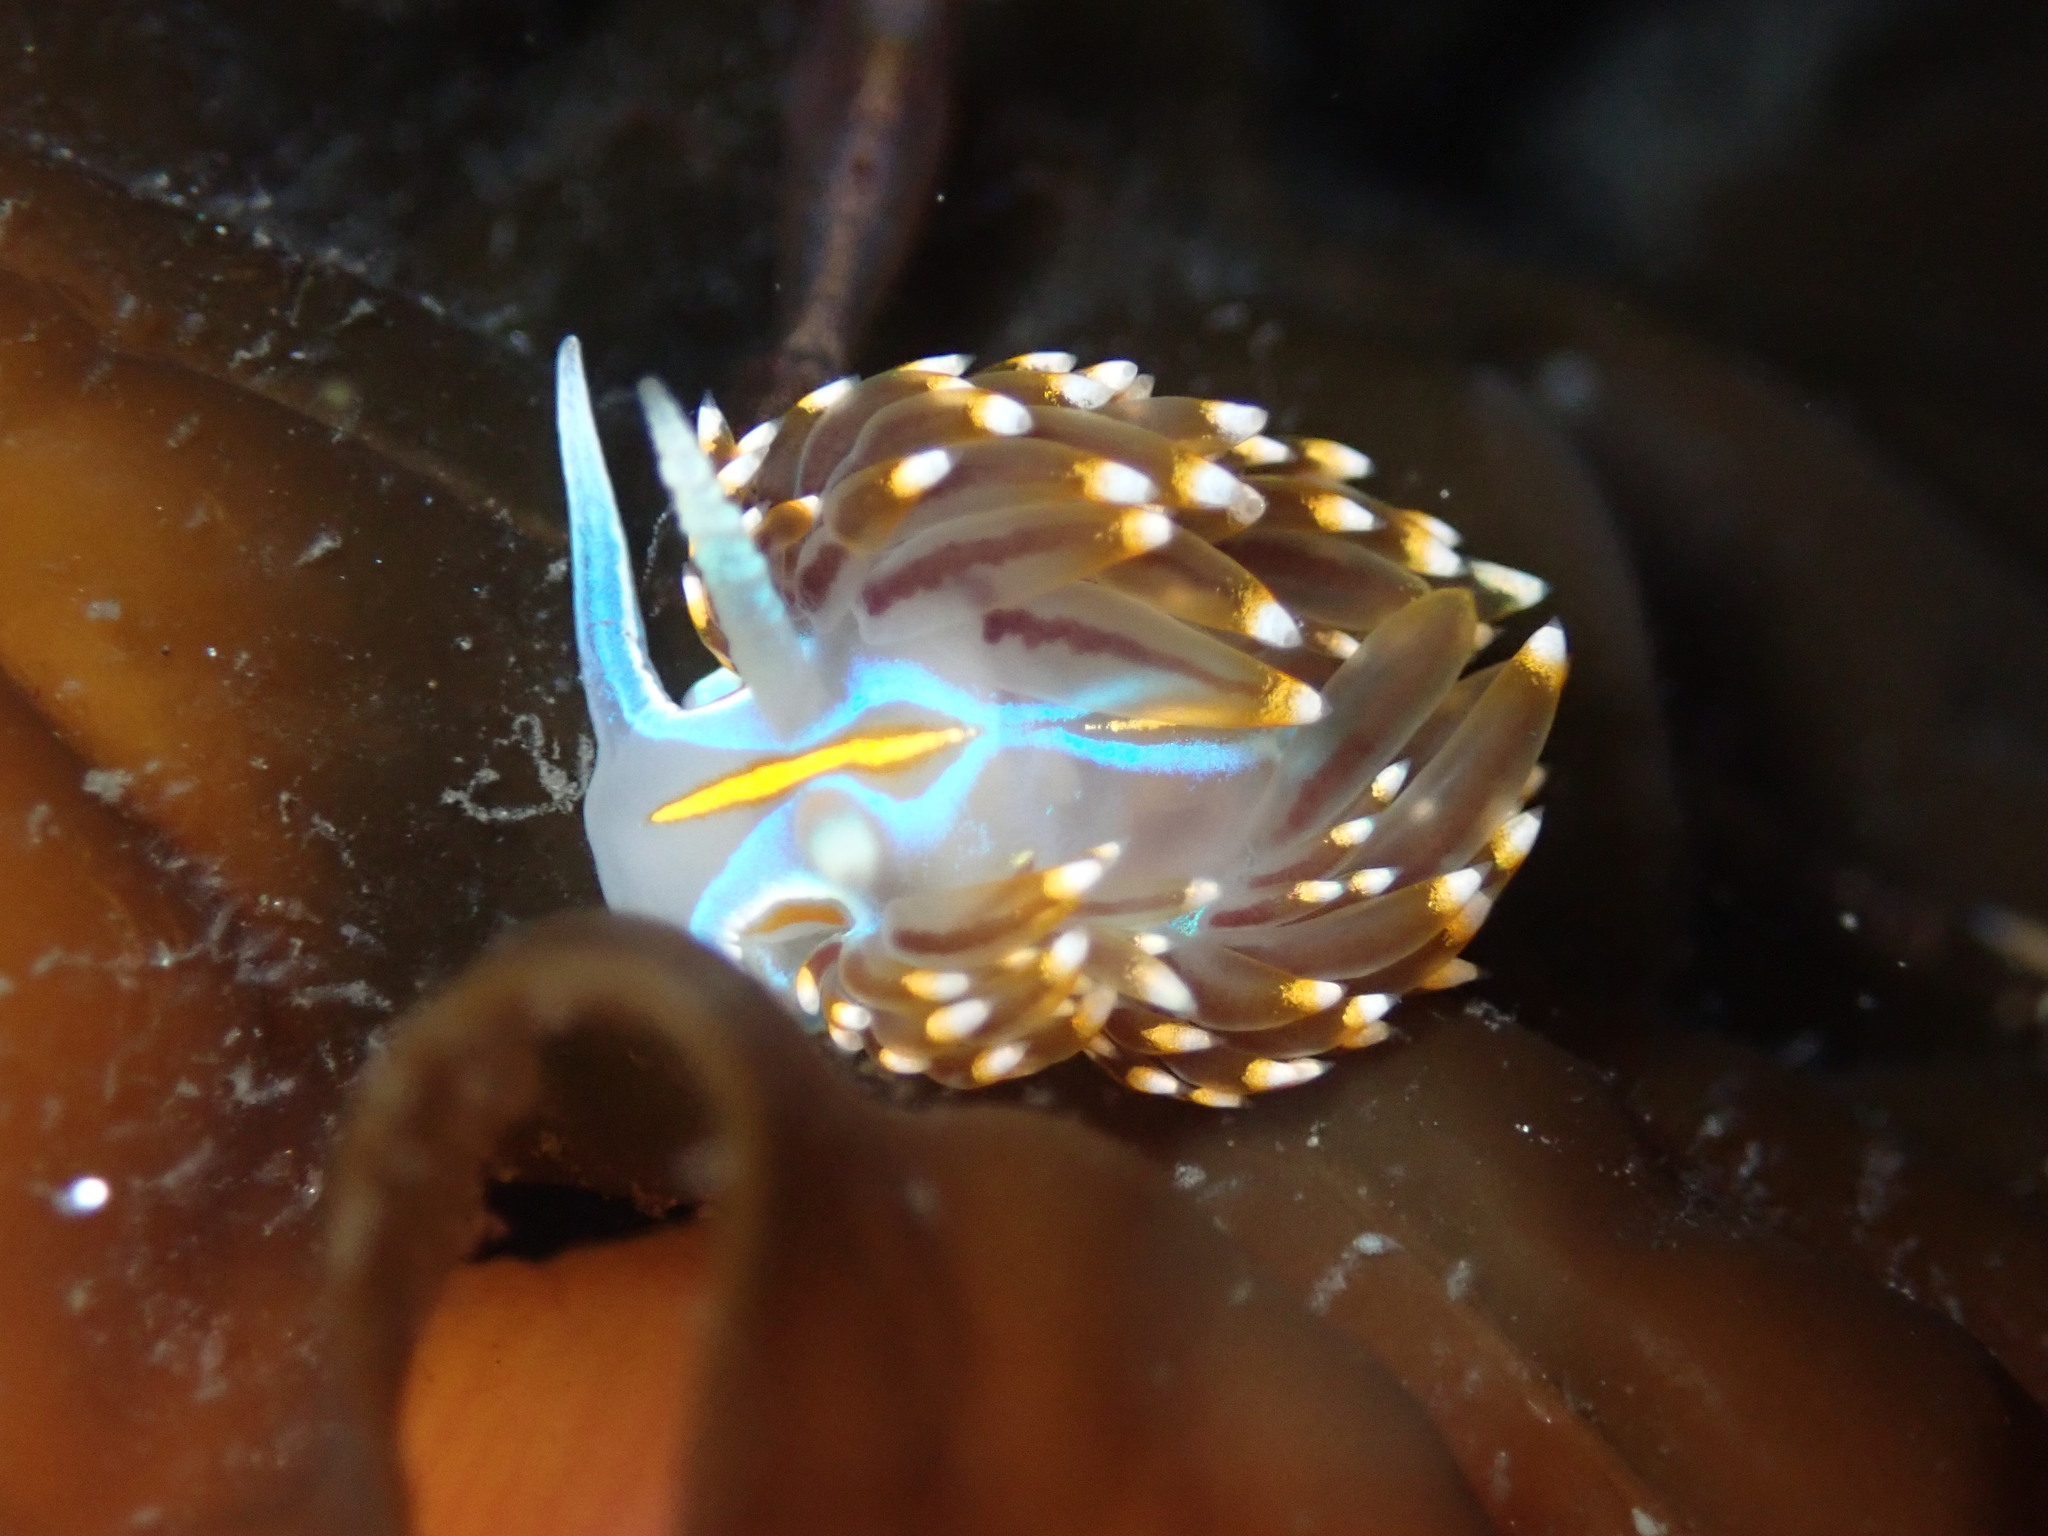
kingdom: Animalia
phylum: Mollusca
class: Gastropoda
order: Nudibranchia
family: Myrrhinidae
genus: Hermissenda
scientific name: Hermissenda opalescens
